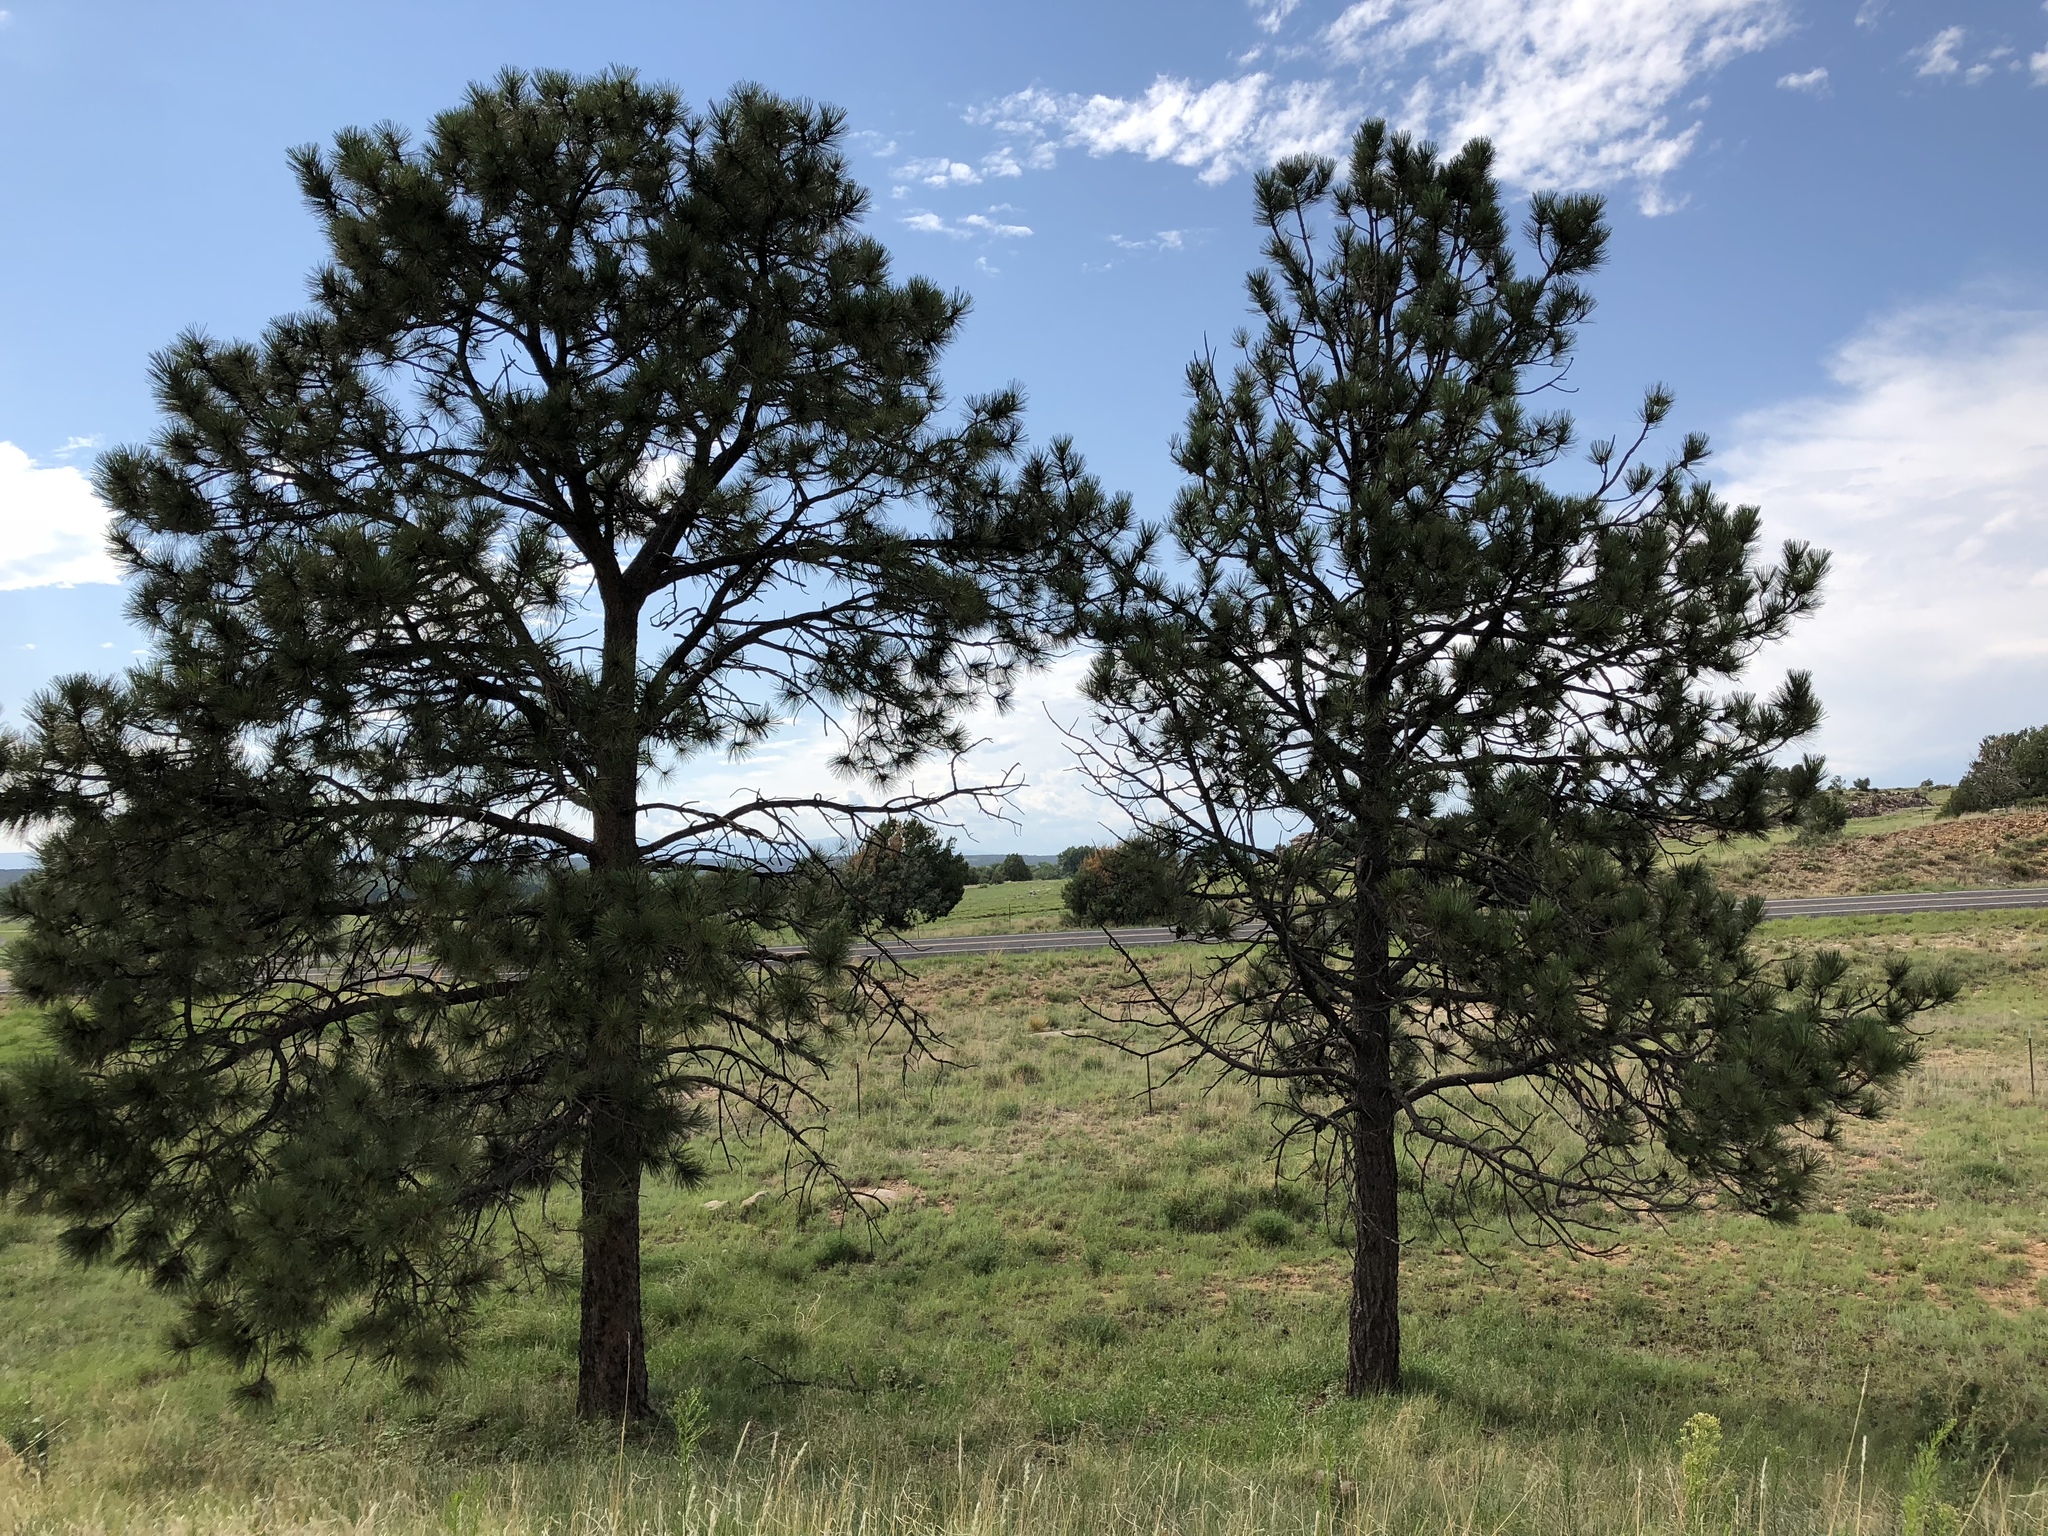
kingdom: Plantae
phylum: Tracheophyta
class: Pinopsida
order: Pinales
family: Pinaceae
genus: Pinus
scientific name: Pinus ponderosa
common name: Western yellow-pine
